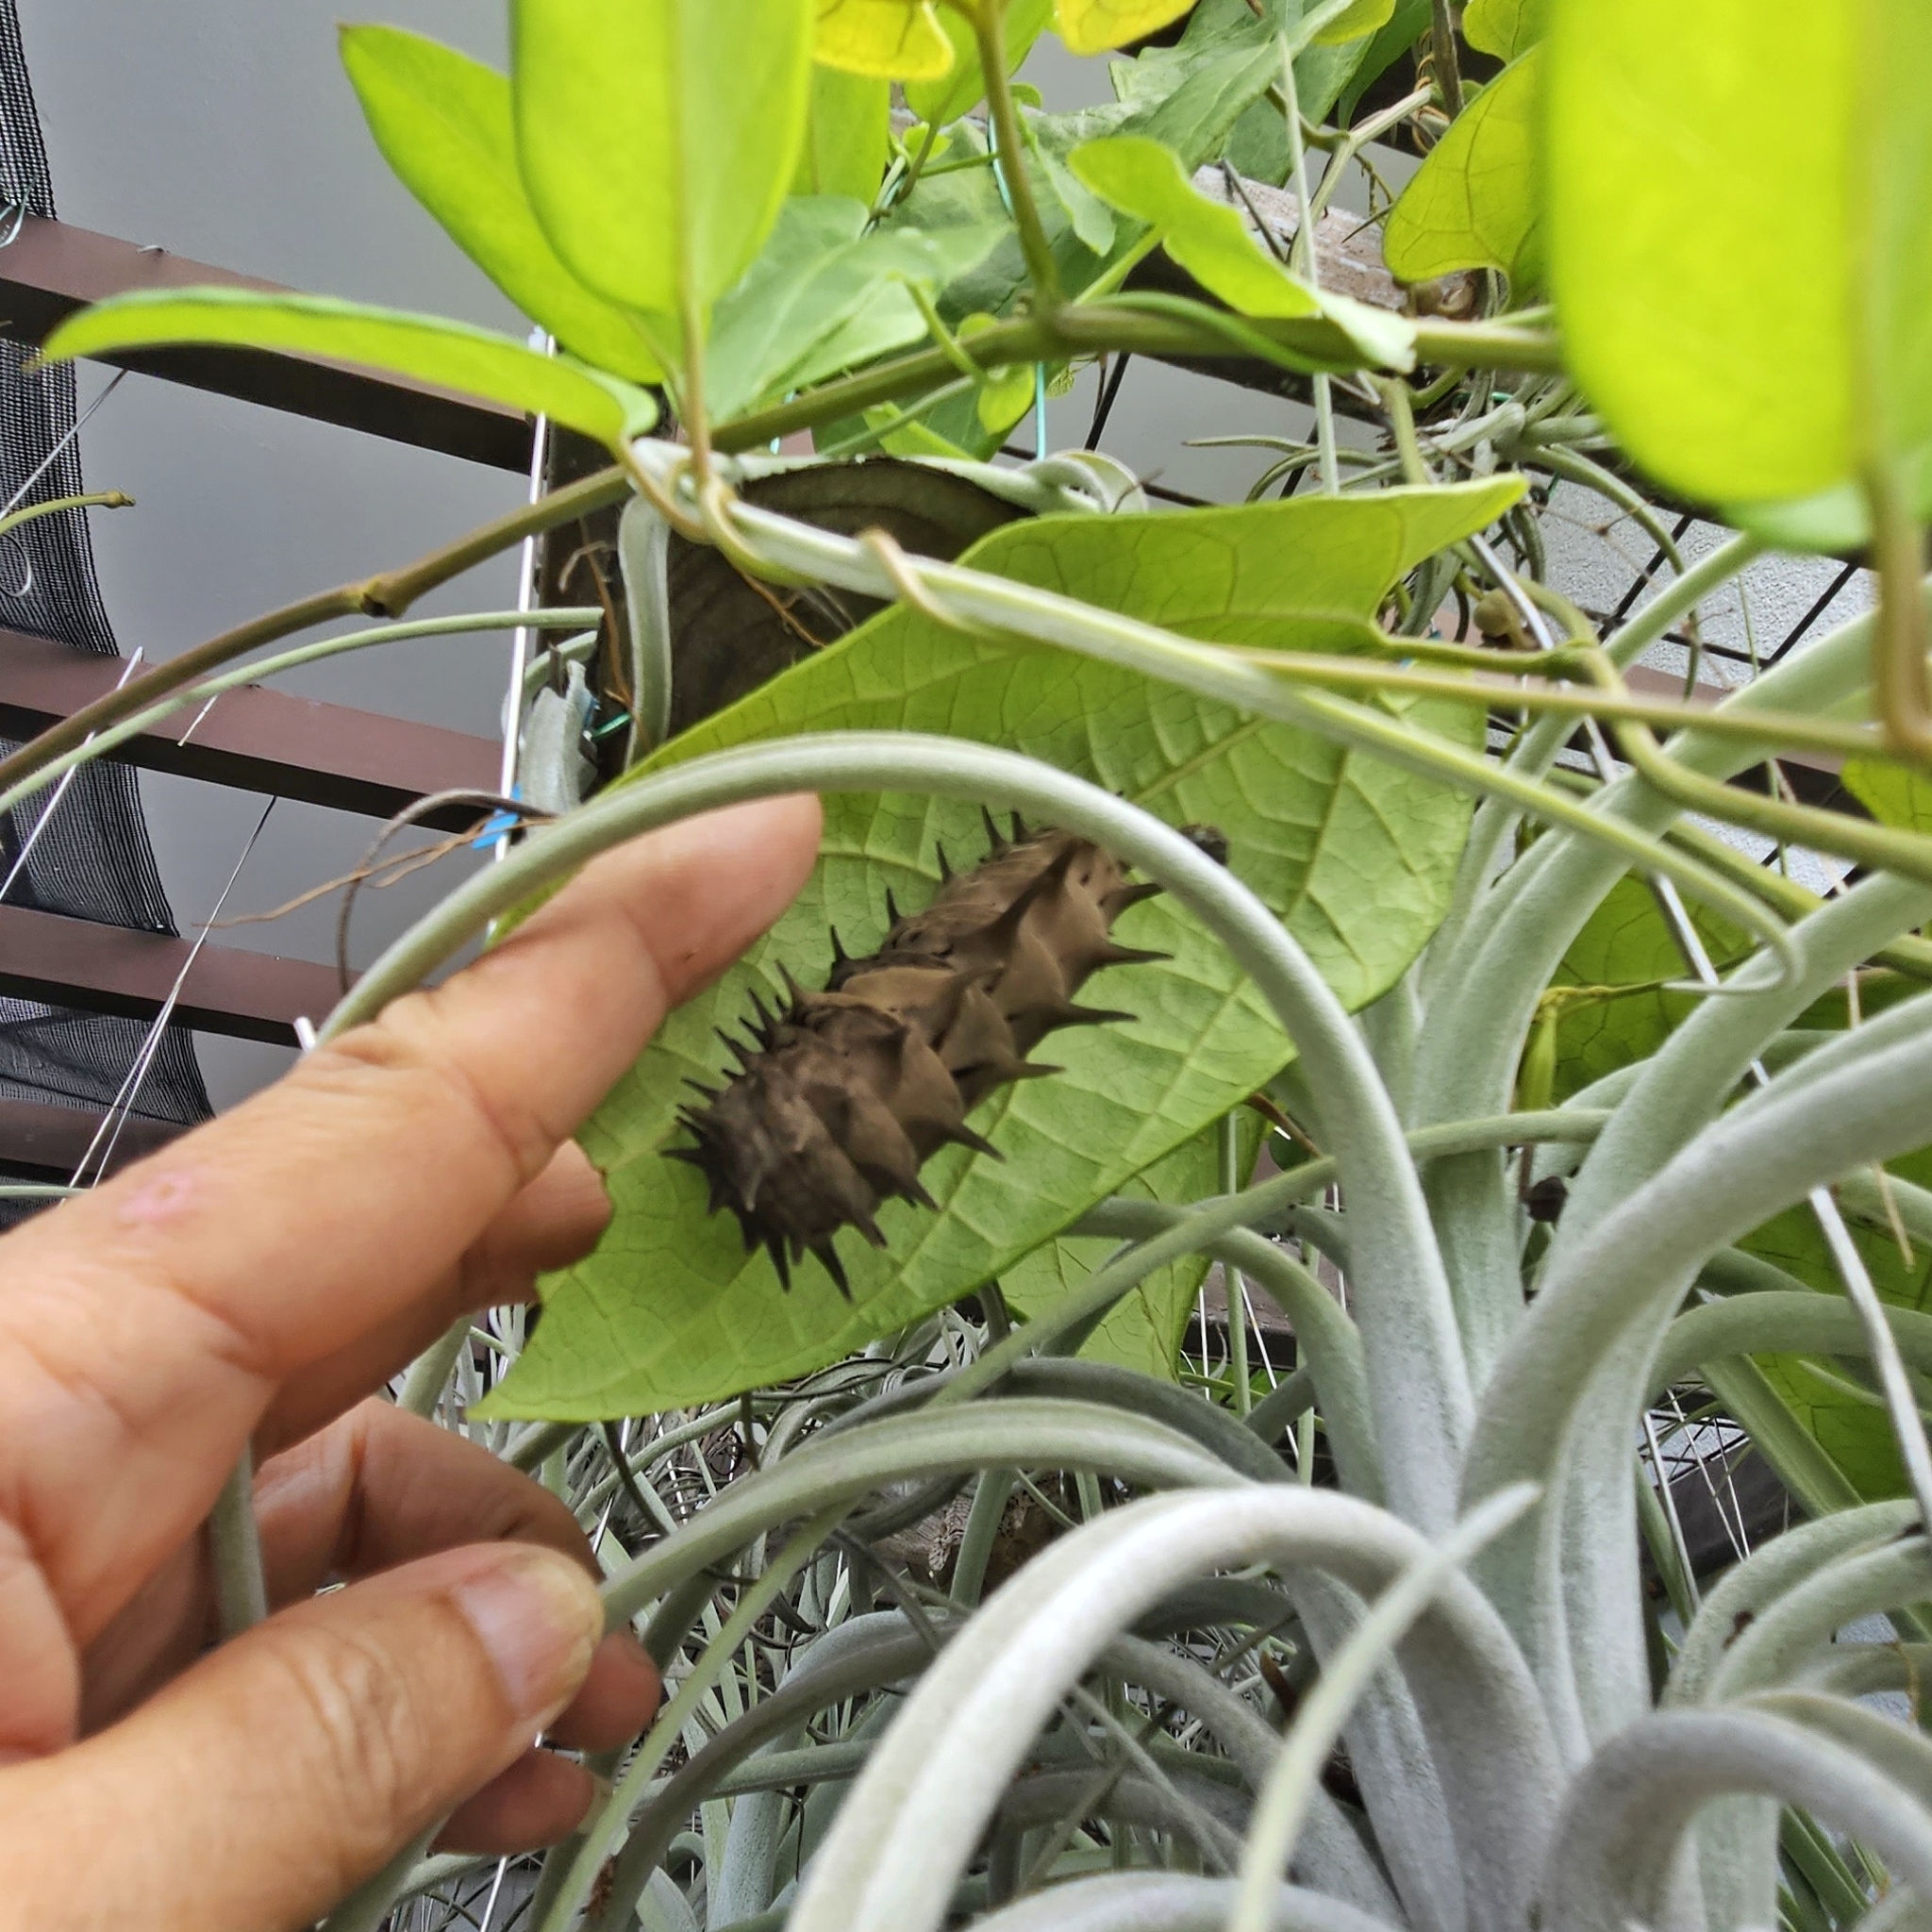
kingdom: Animalia
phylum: Arthropoda
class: Insecta
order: Lepidoptera
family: Papilionidae
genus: Troides
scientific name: Troides helena
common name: Common birdwing
